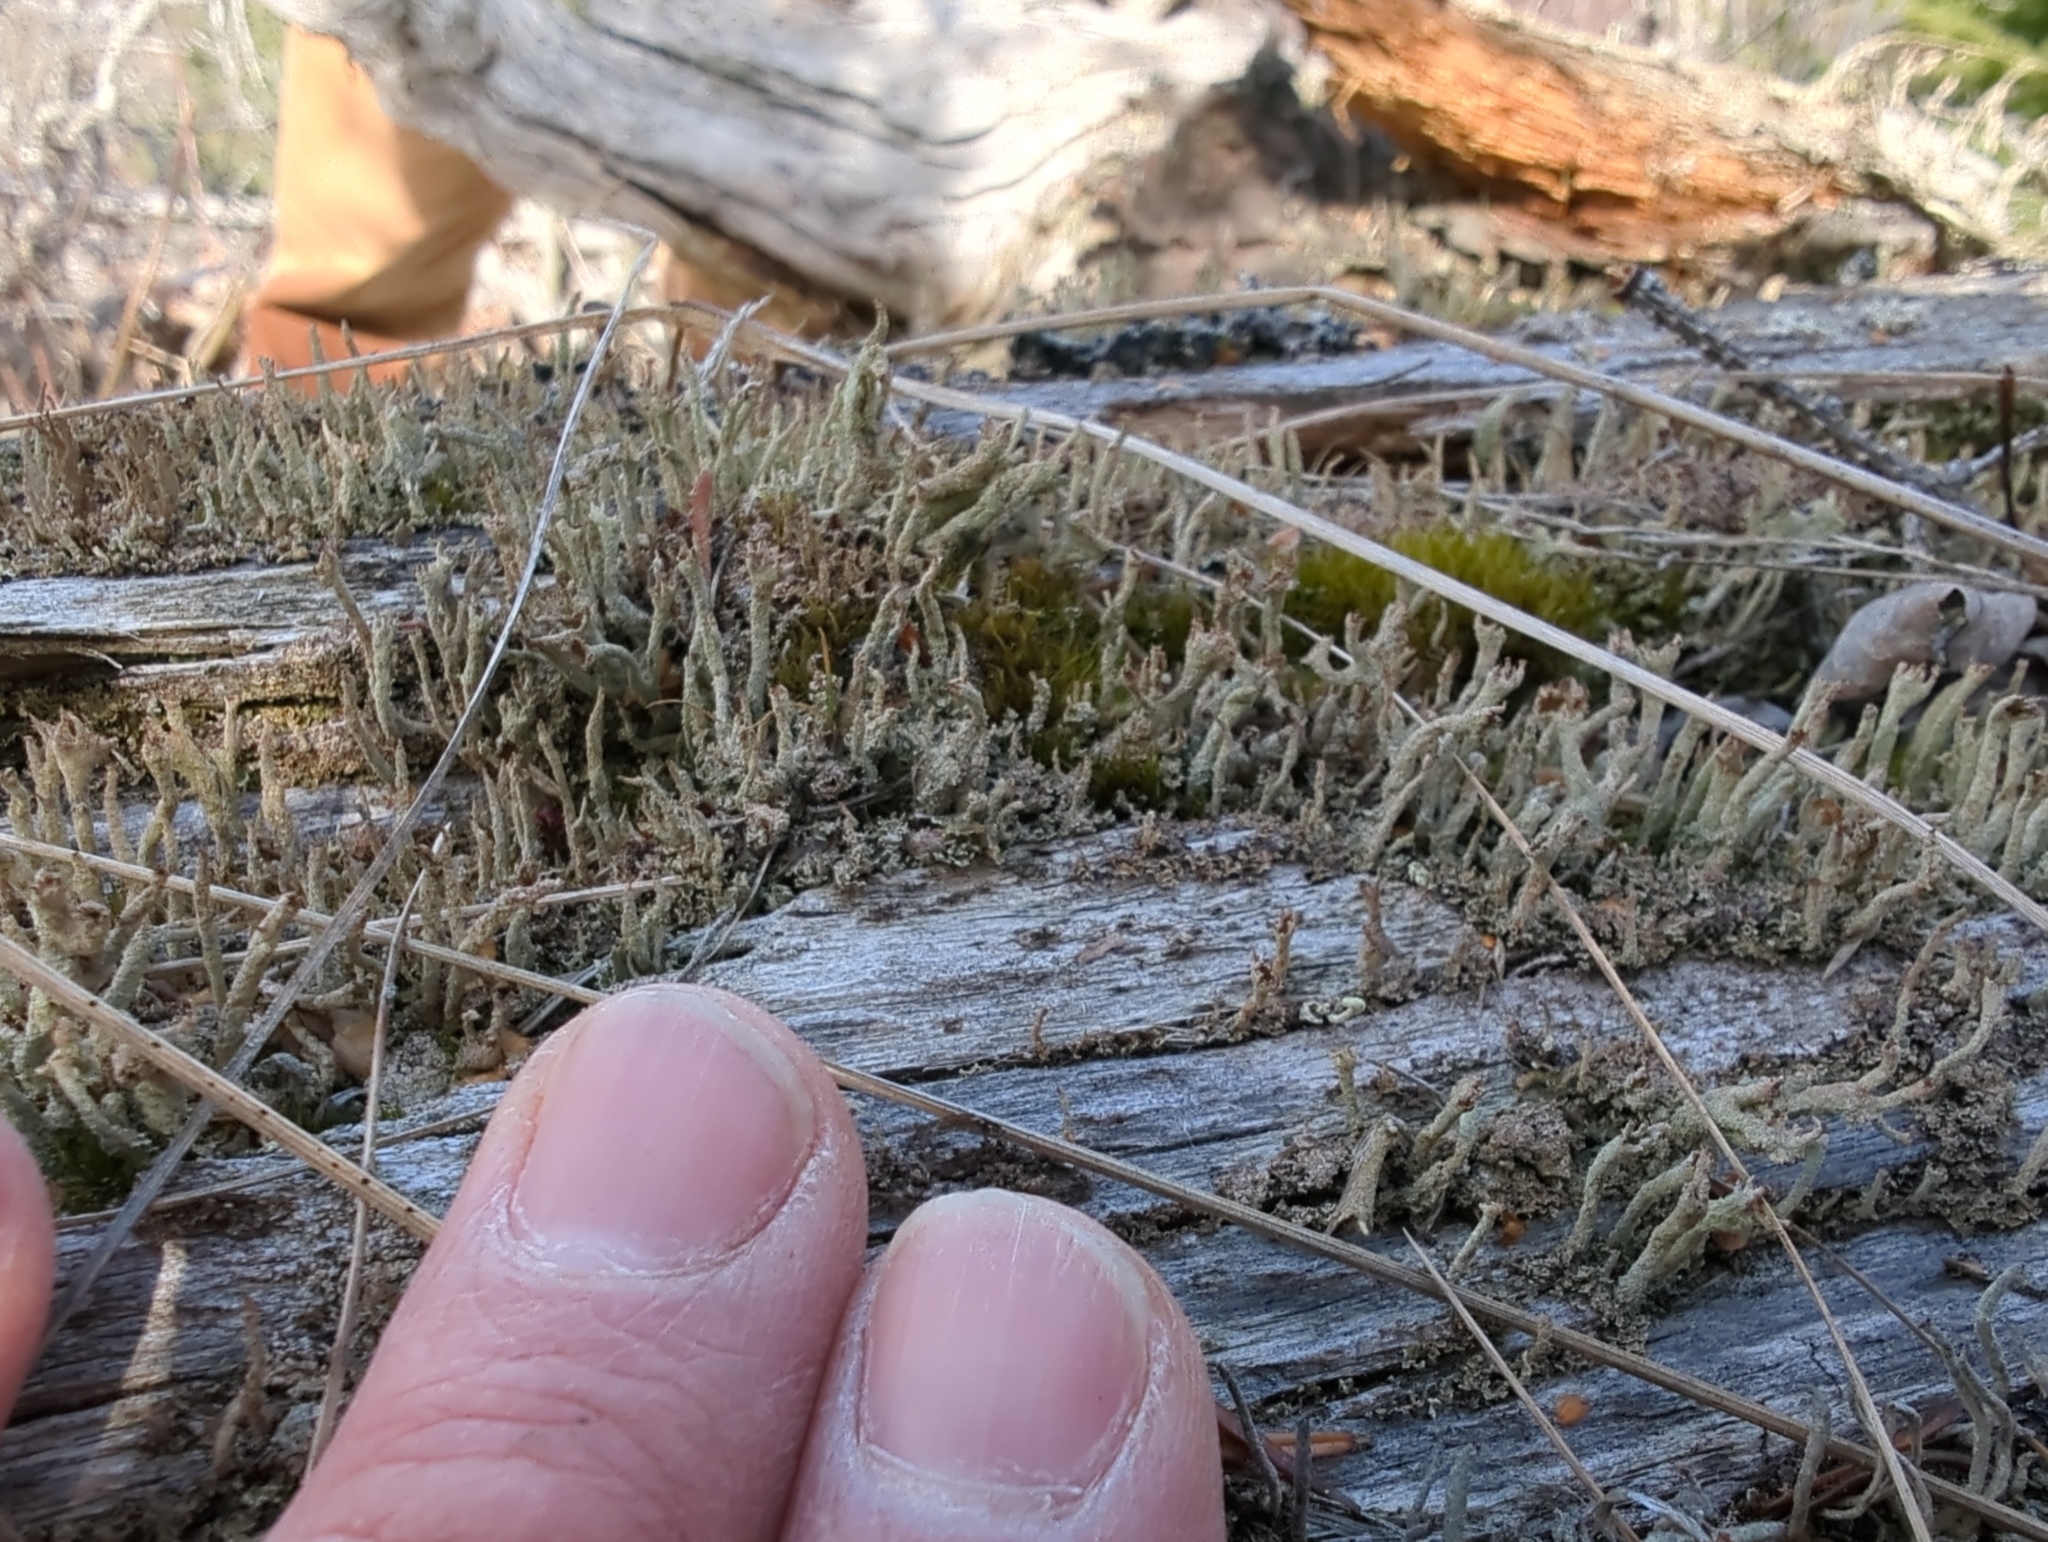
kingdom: Fungi
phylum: Ascomycota
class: Lecanoromycetes
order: Lecanorales
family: Cladoniaceae
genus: Cladonia
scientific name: Cladonia cenotea
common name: Powdered funnel lichen
